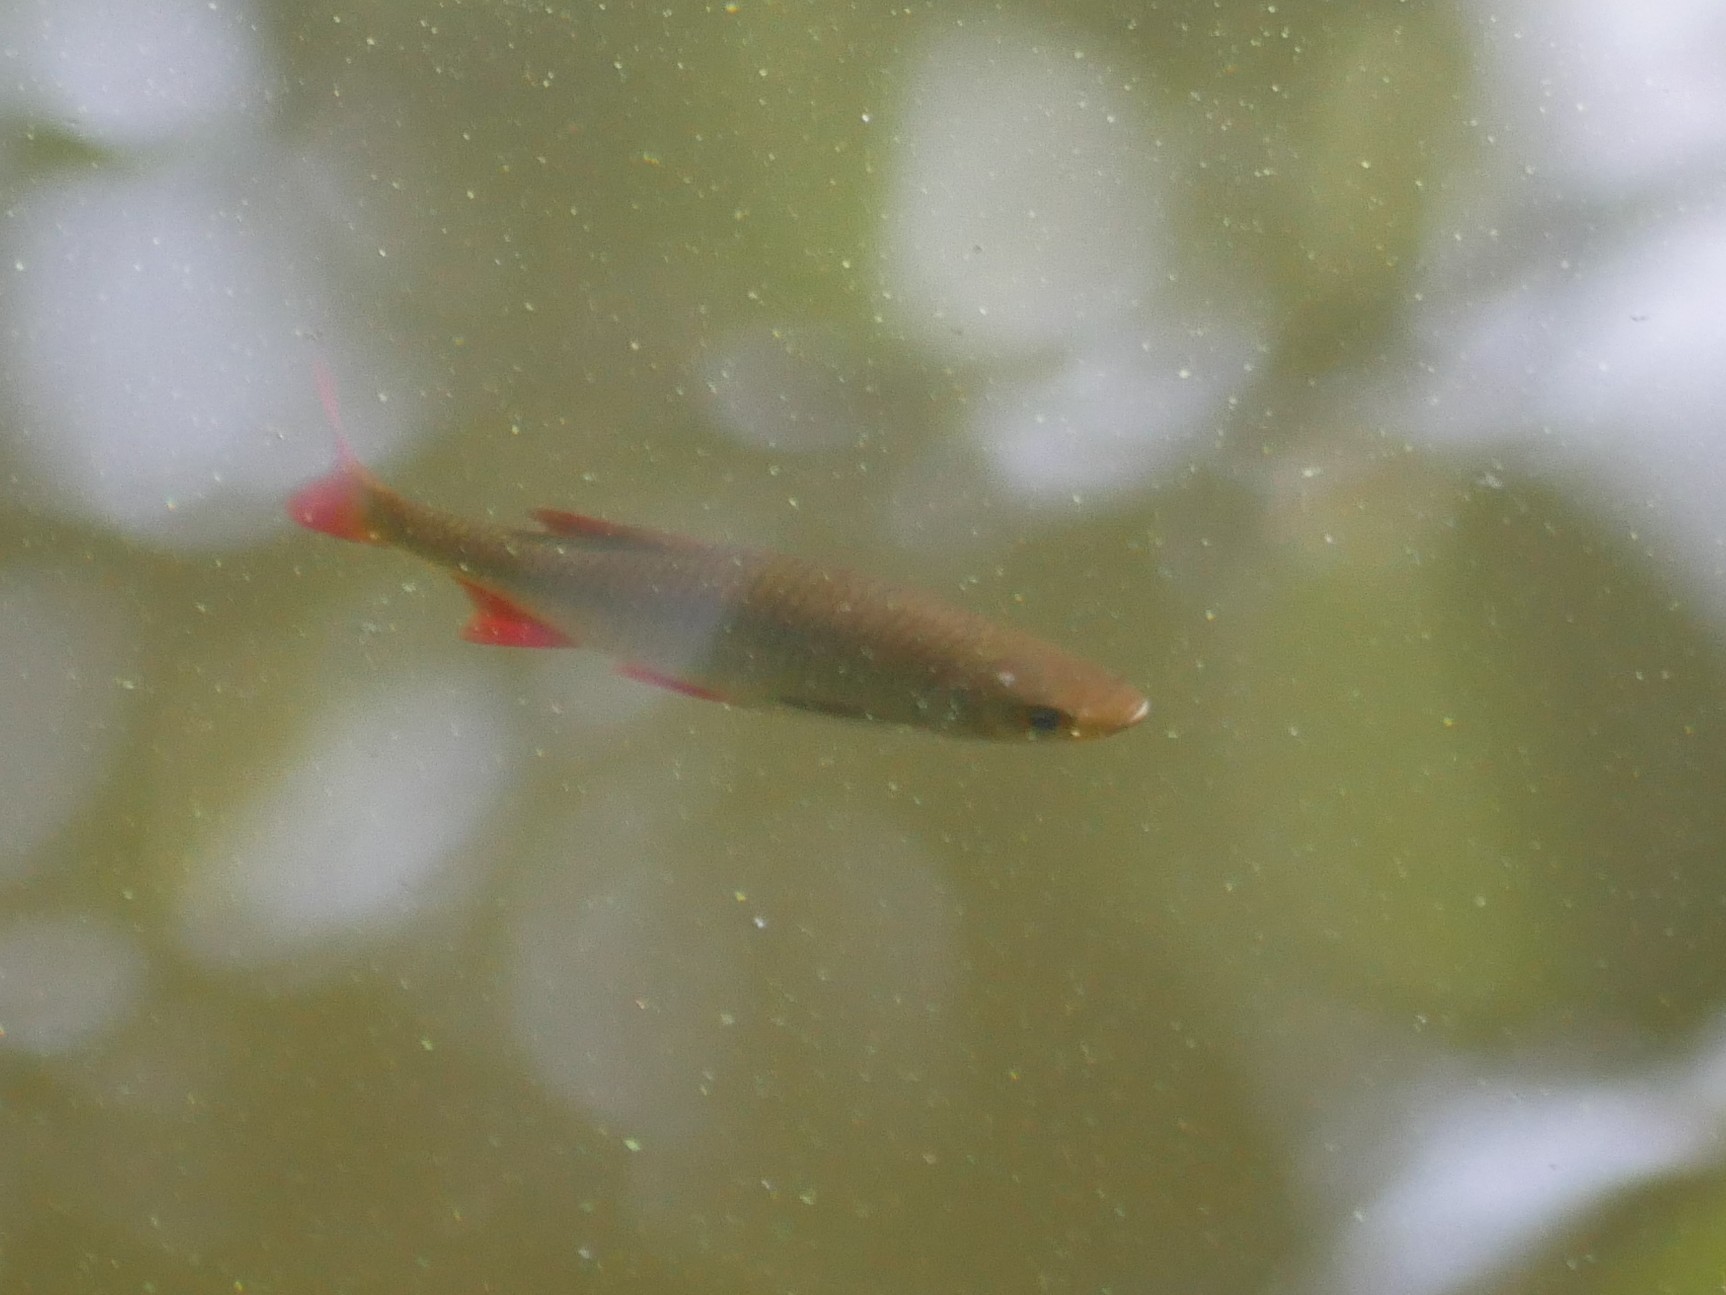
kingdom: Animalia
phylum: Chordata
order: Cypriniformes
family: Cyprinidae
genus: Scardinius
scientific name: Scardinius erythrophthalmus
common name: Rudd
